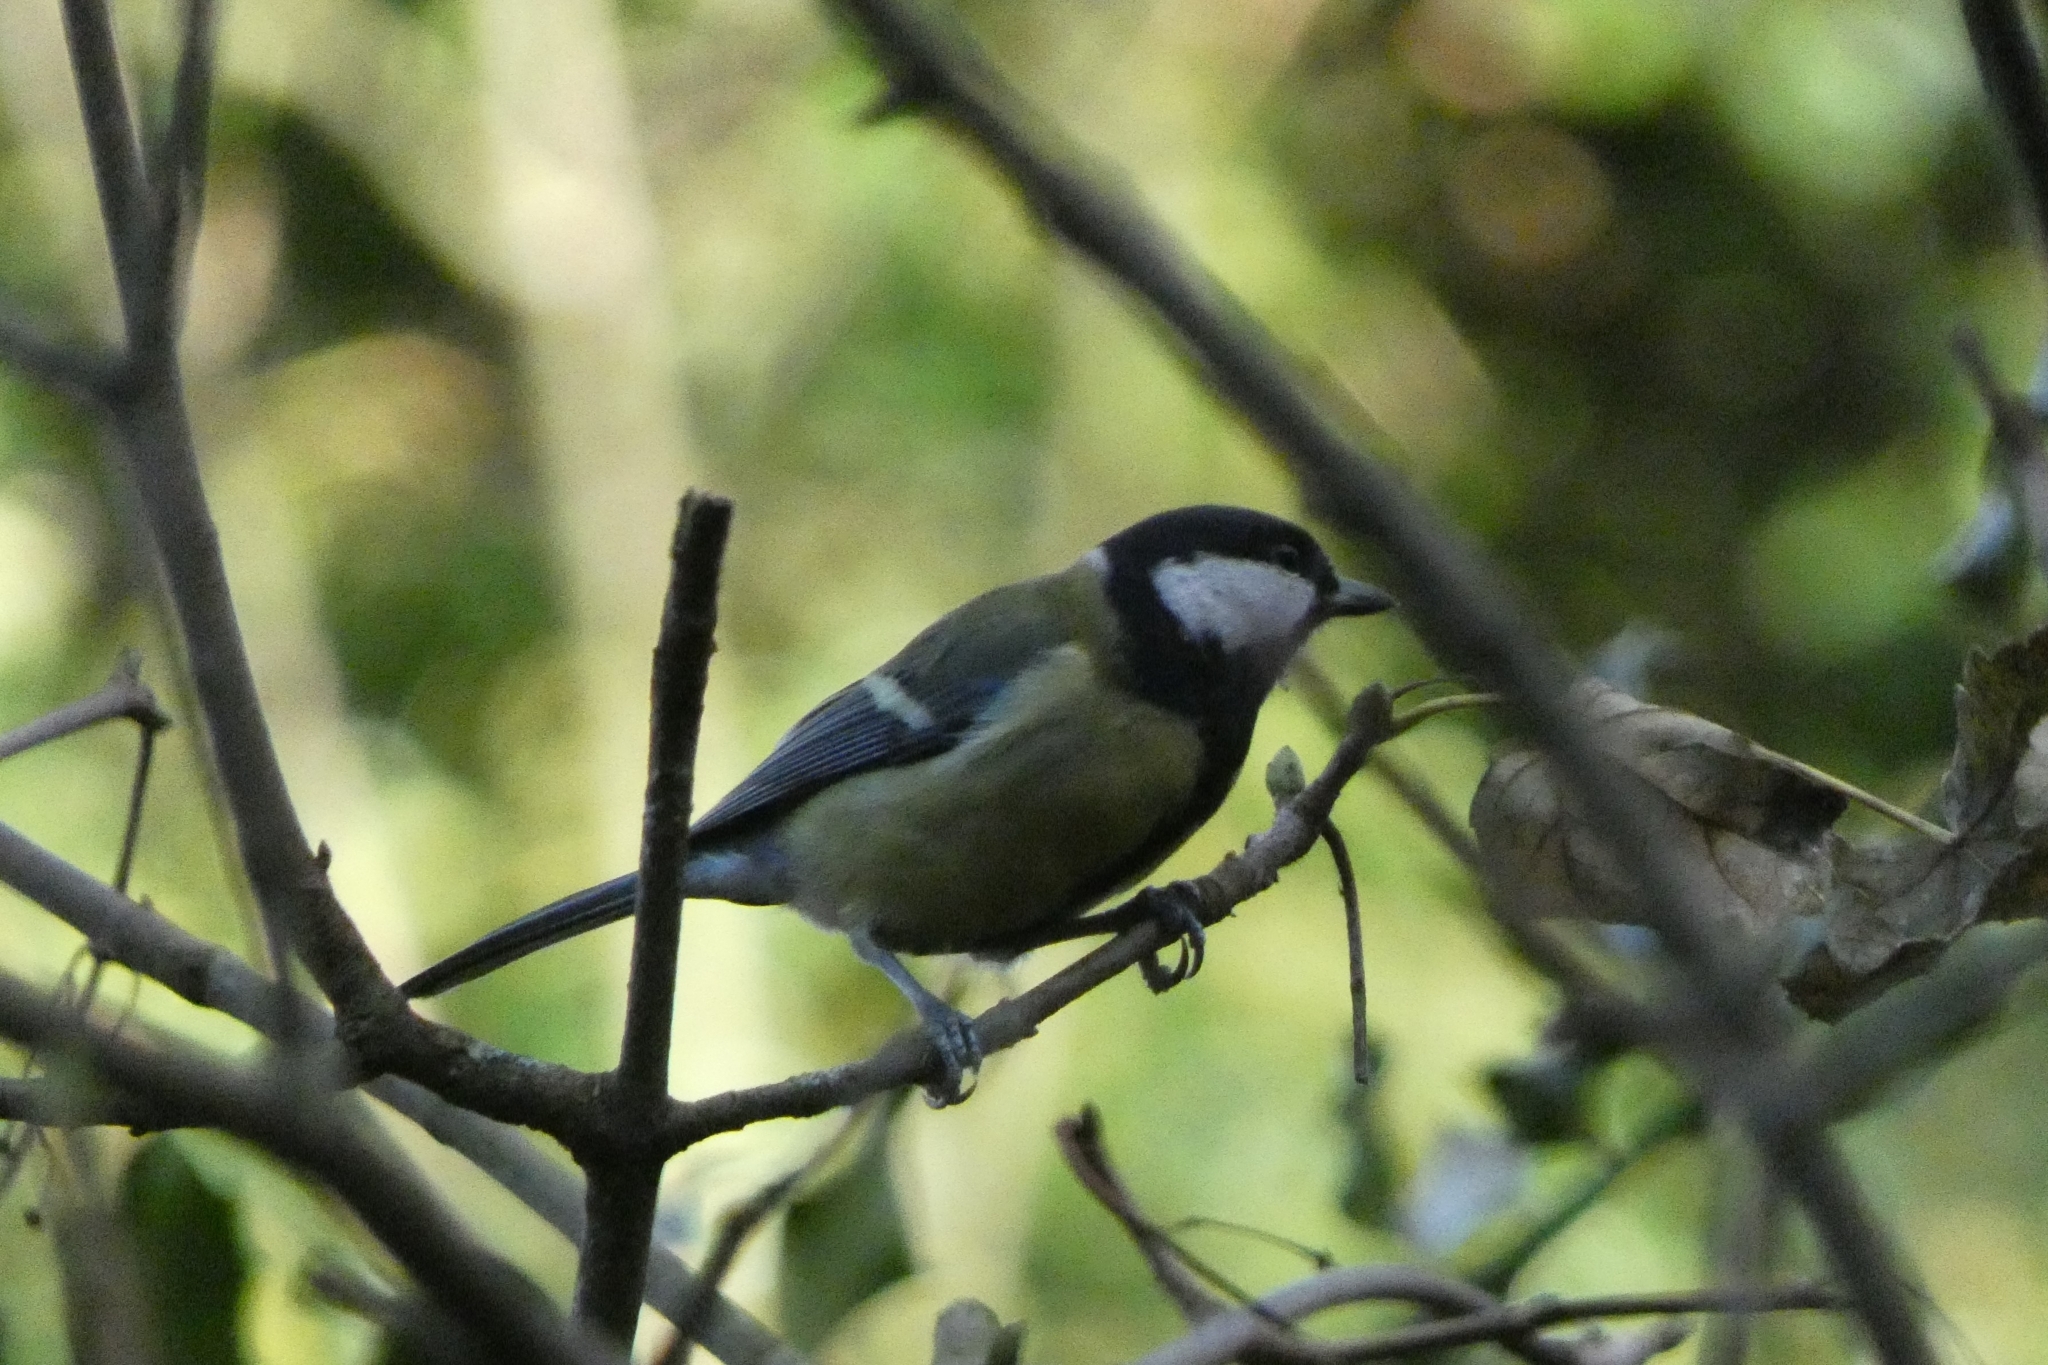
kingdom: Animalia
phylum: Chordata
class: Aves
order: Passeriformes
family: Paridae
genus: Parus
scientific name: Parus major
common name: Great tit
